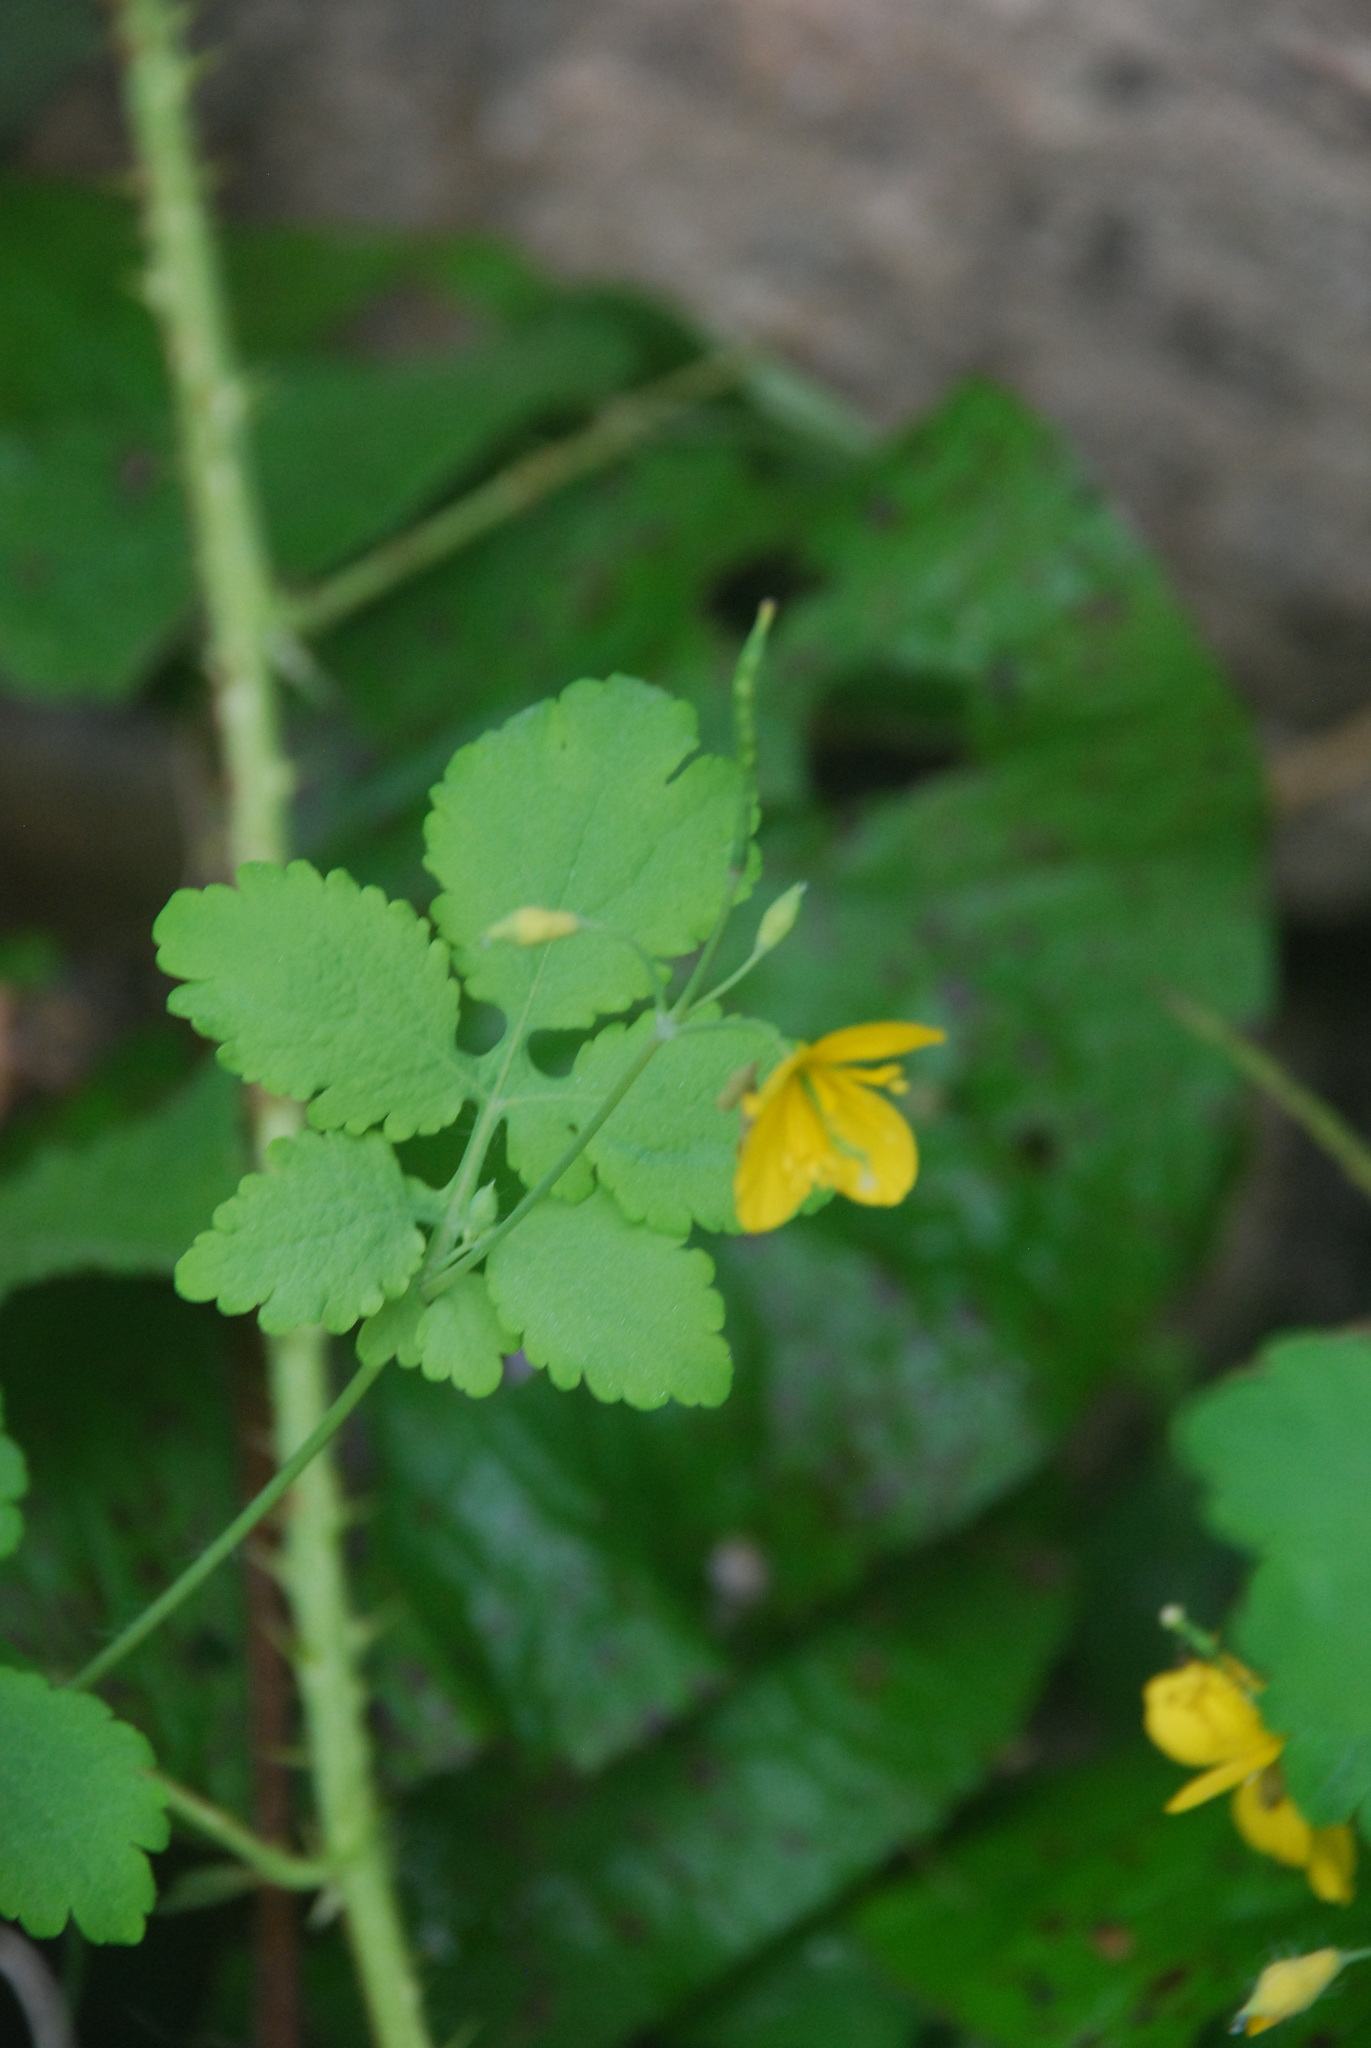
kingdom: Plantae
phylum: Tracheophyta
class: Magnoliopsida
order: Ranunculales
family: Papaveraceae
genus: Chelidonium
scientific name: Chelidonium majus
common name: Greater celandine
